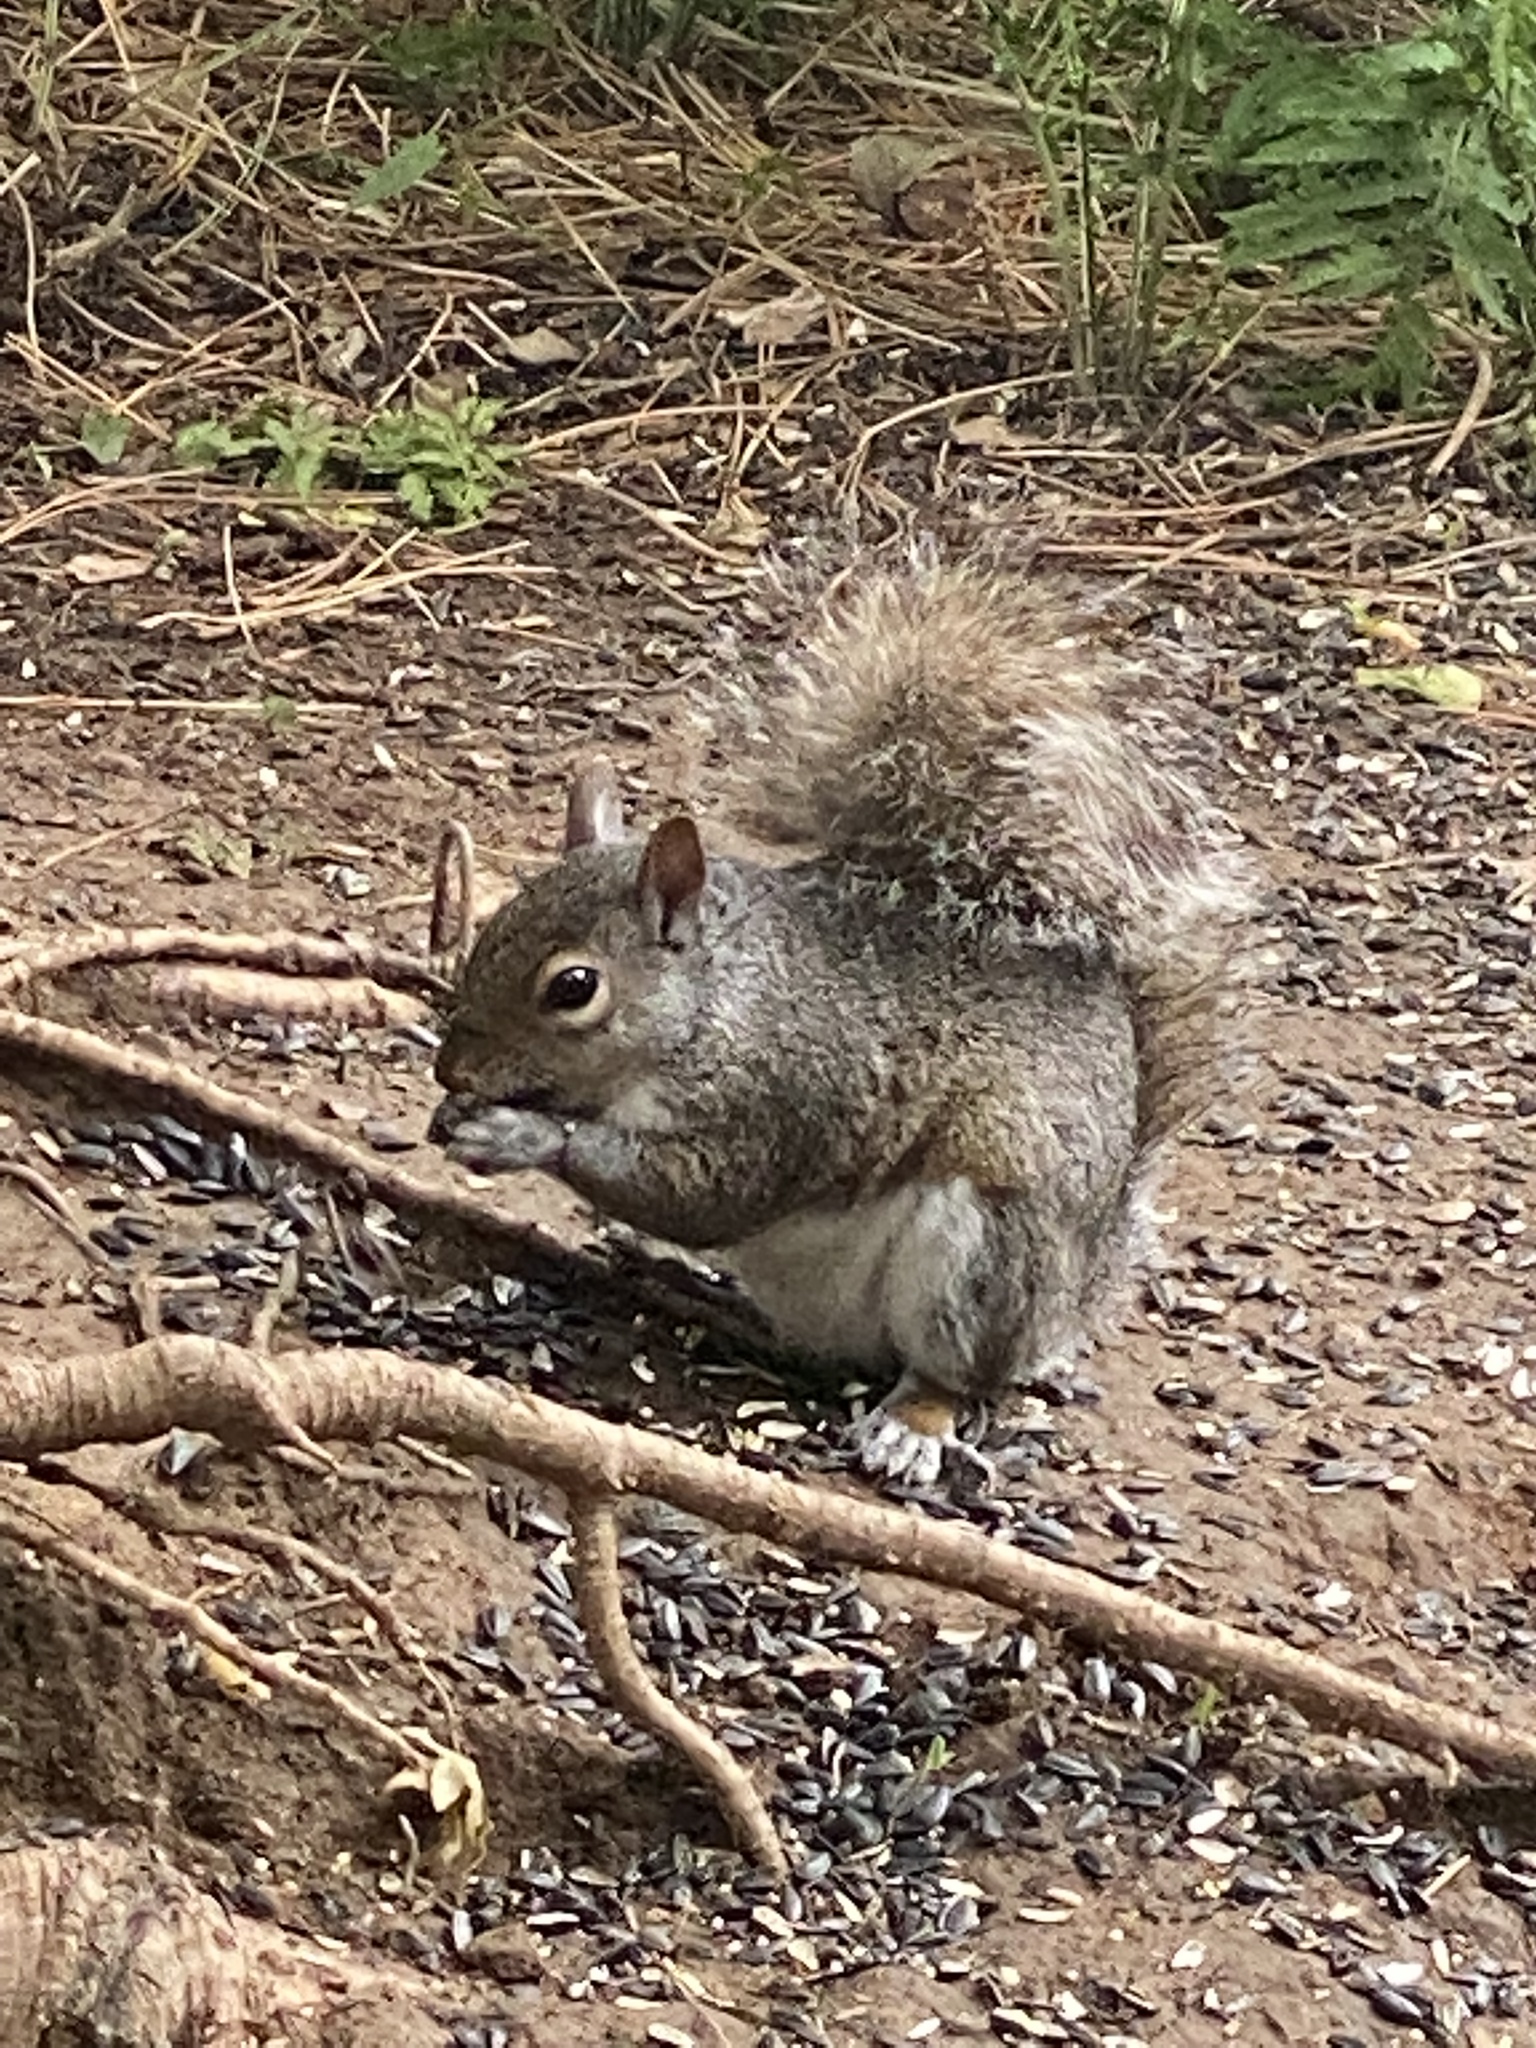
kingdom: Animalia
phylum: Chordata
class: Mammalia
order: Rodentia
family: Sciuridae
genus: Sciurus
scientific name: Sciurus carolinensis
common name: Eastern gray squirrel
